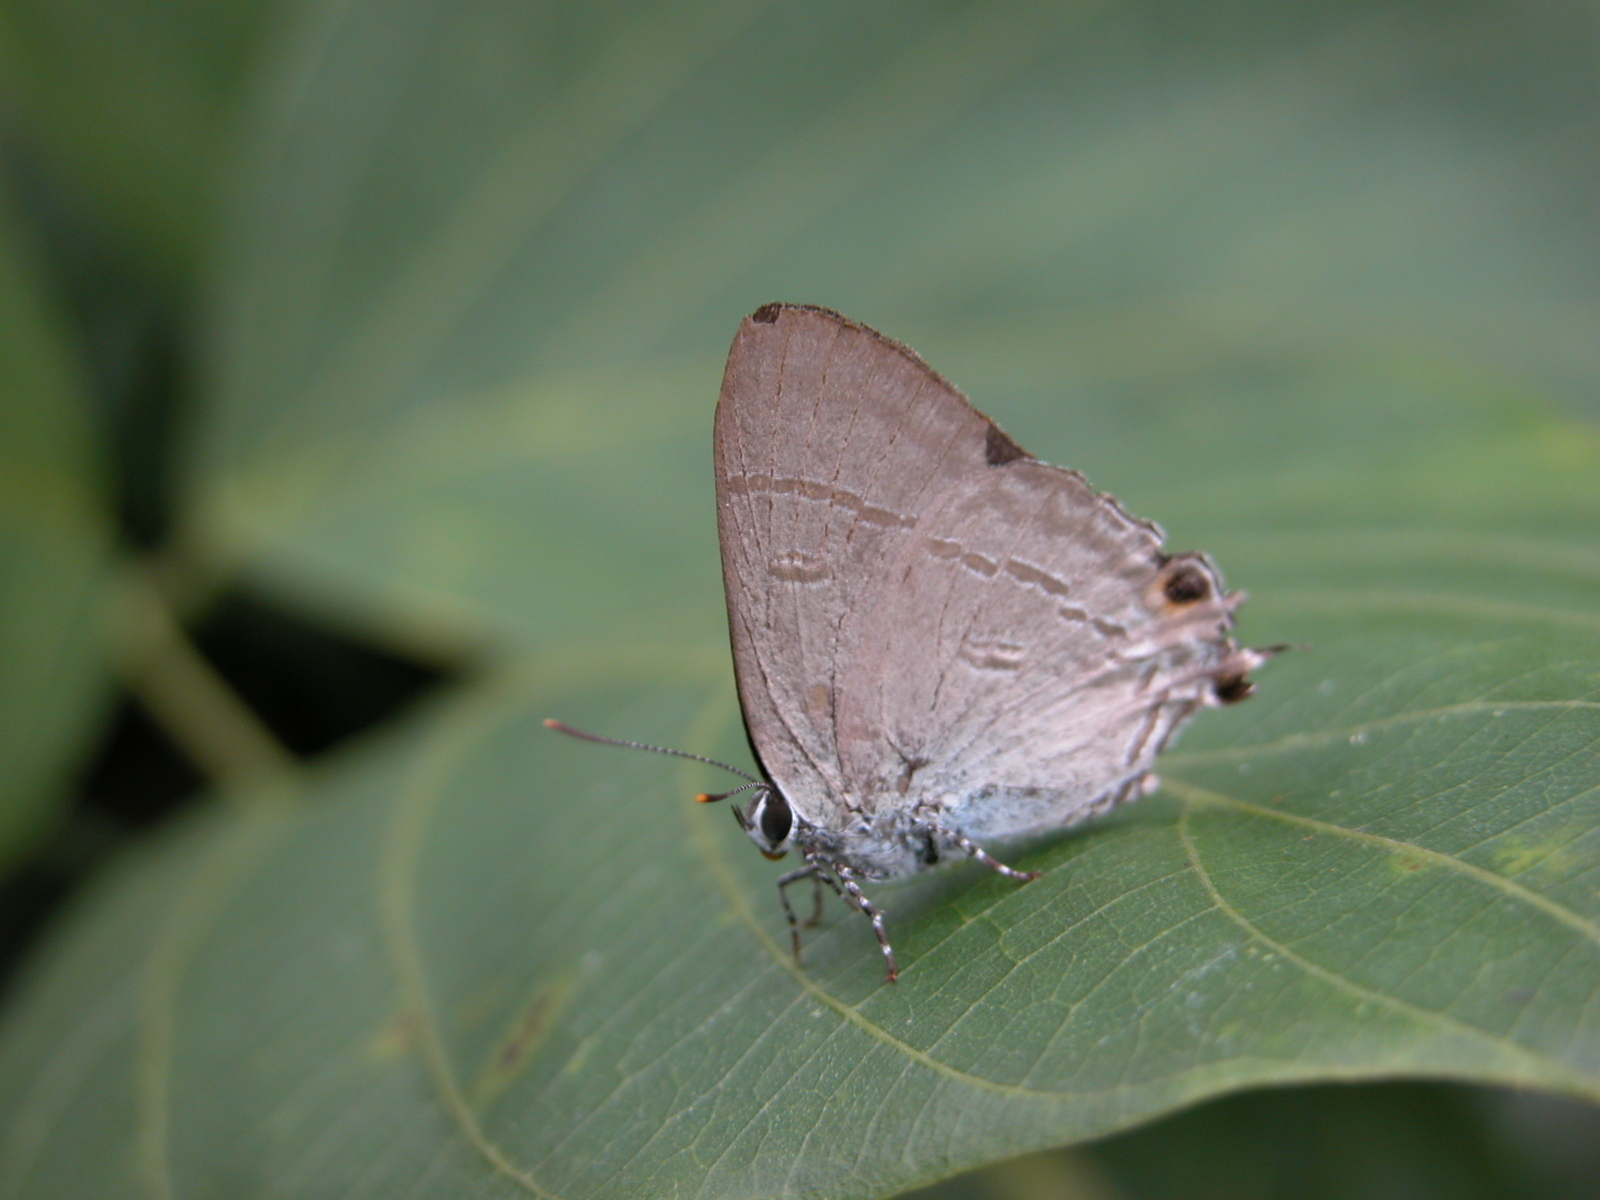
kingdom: Animalia
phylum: Arthropoda
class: Insecta
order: Lepidoptera
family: Lycaenidae
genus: Hypolycaena
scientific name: Hypolycaena erylus
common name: Common tit
